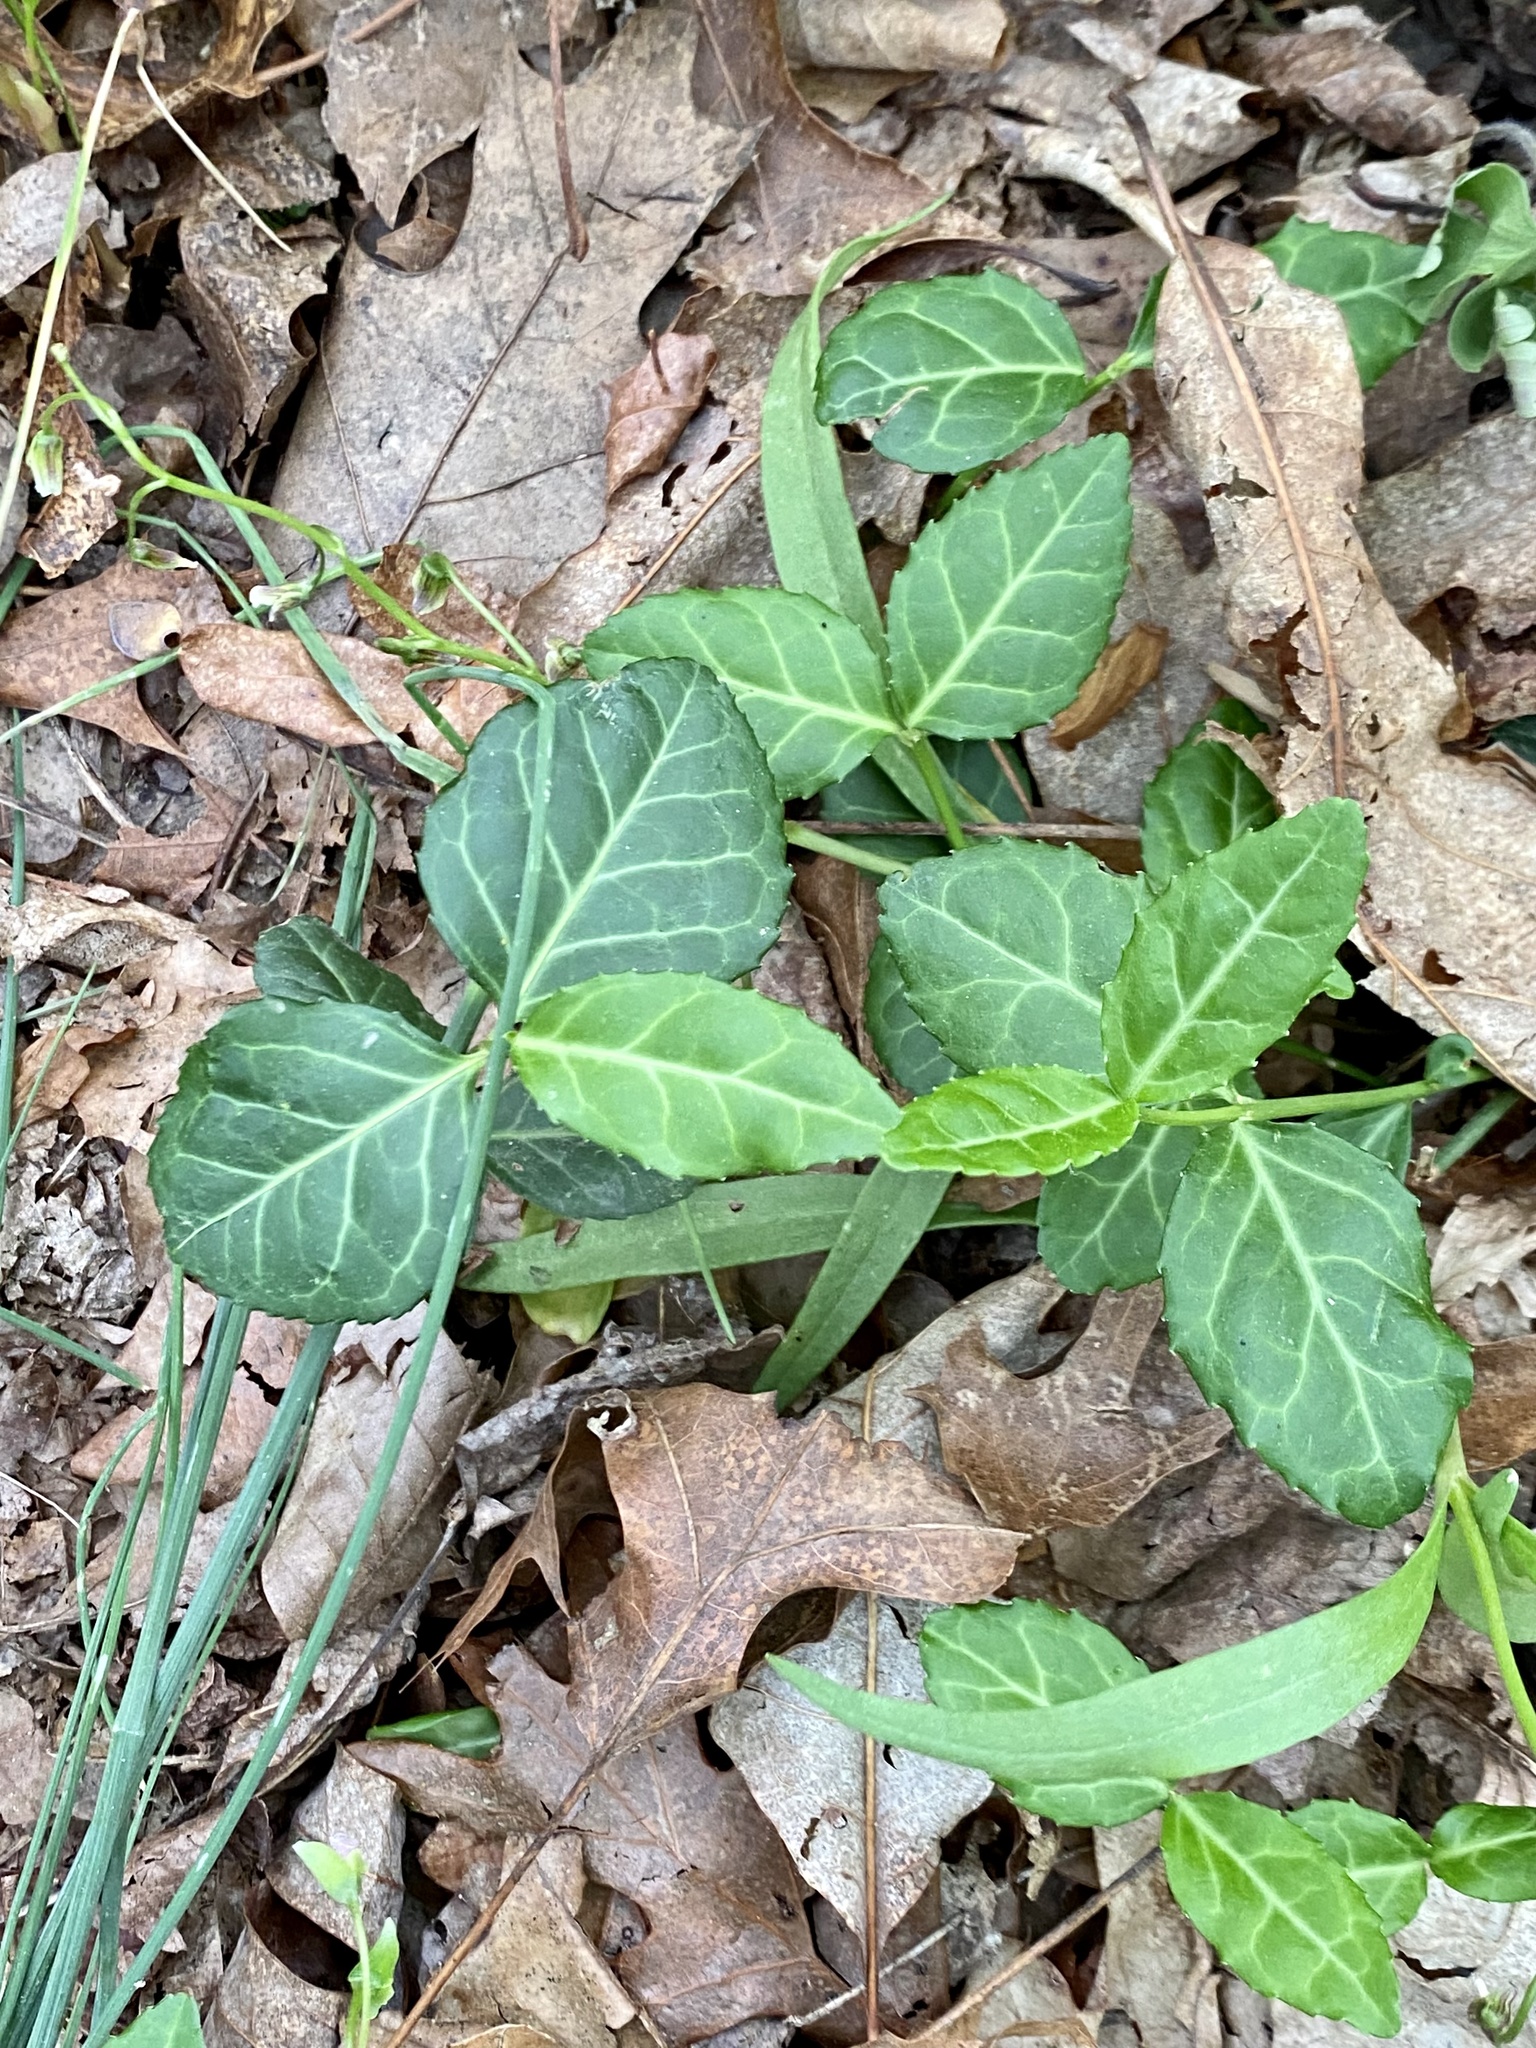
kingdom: Plantae
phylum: Tracheophyta
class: Magnoliopsida
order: Celastrales
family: Celastraceae
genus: Euonymus
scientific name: Euonymus fortunei
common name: Climbing euonymus
